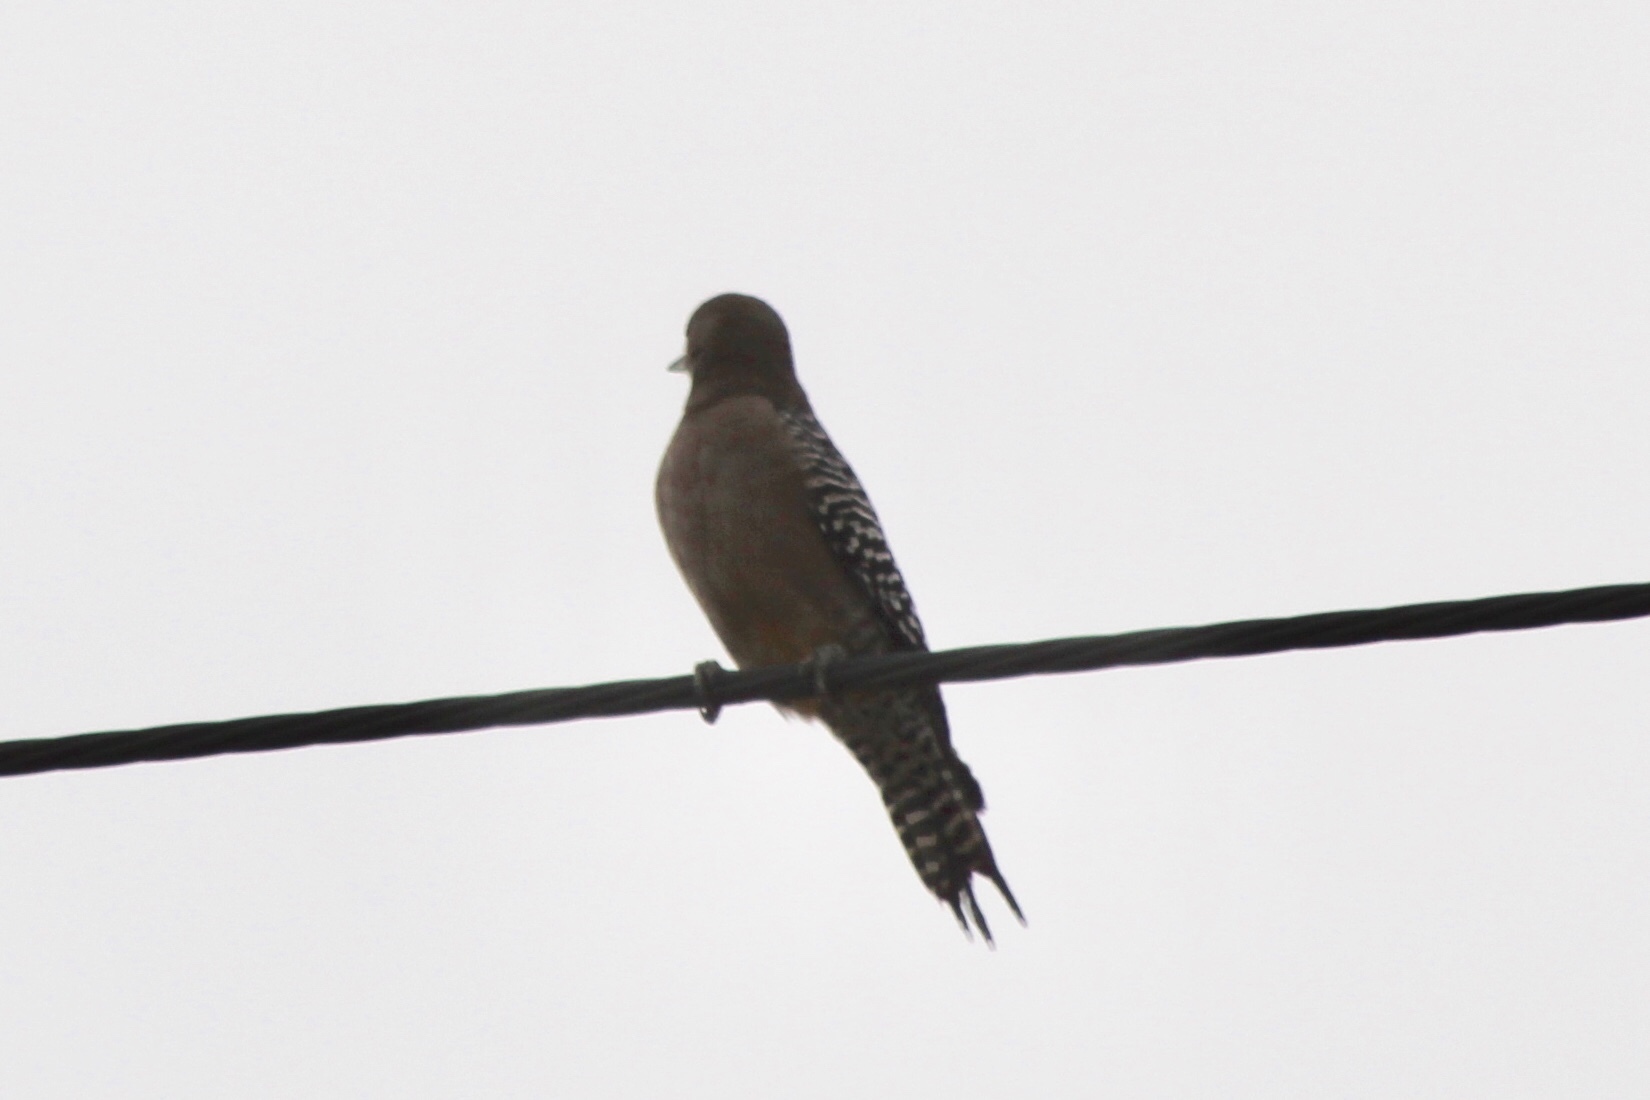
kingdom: Animalia
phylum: Chordata
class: Aves
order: Piciformes
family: Picidae
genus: Melanerpes
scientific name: Melanerpes uropygialis
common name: Gila woodpecker
